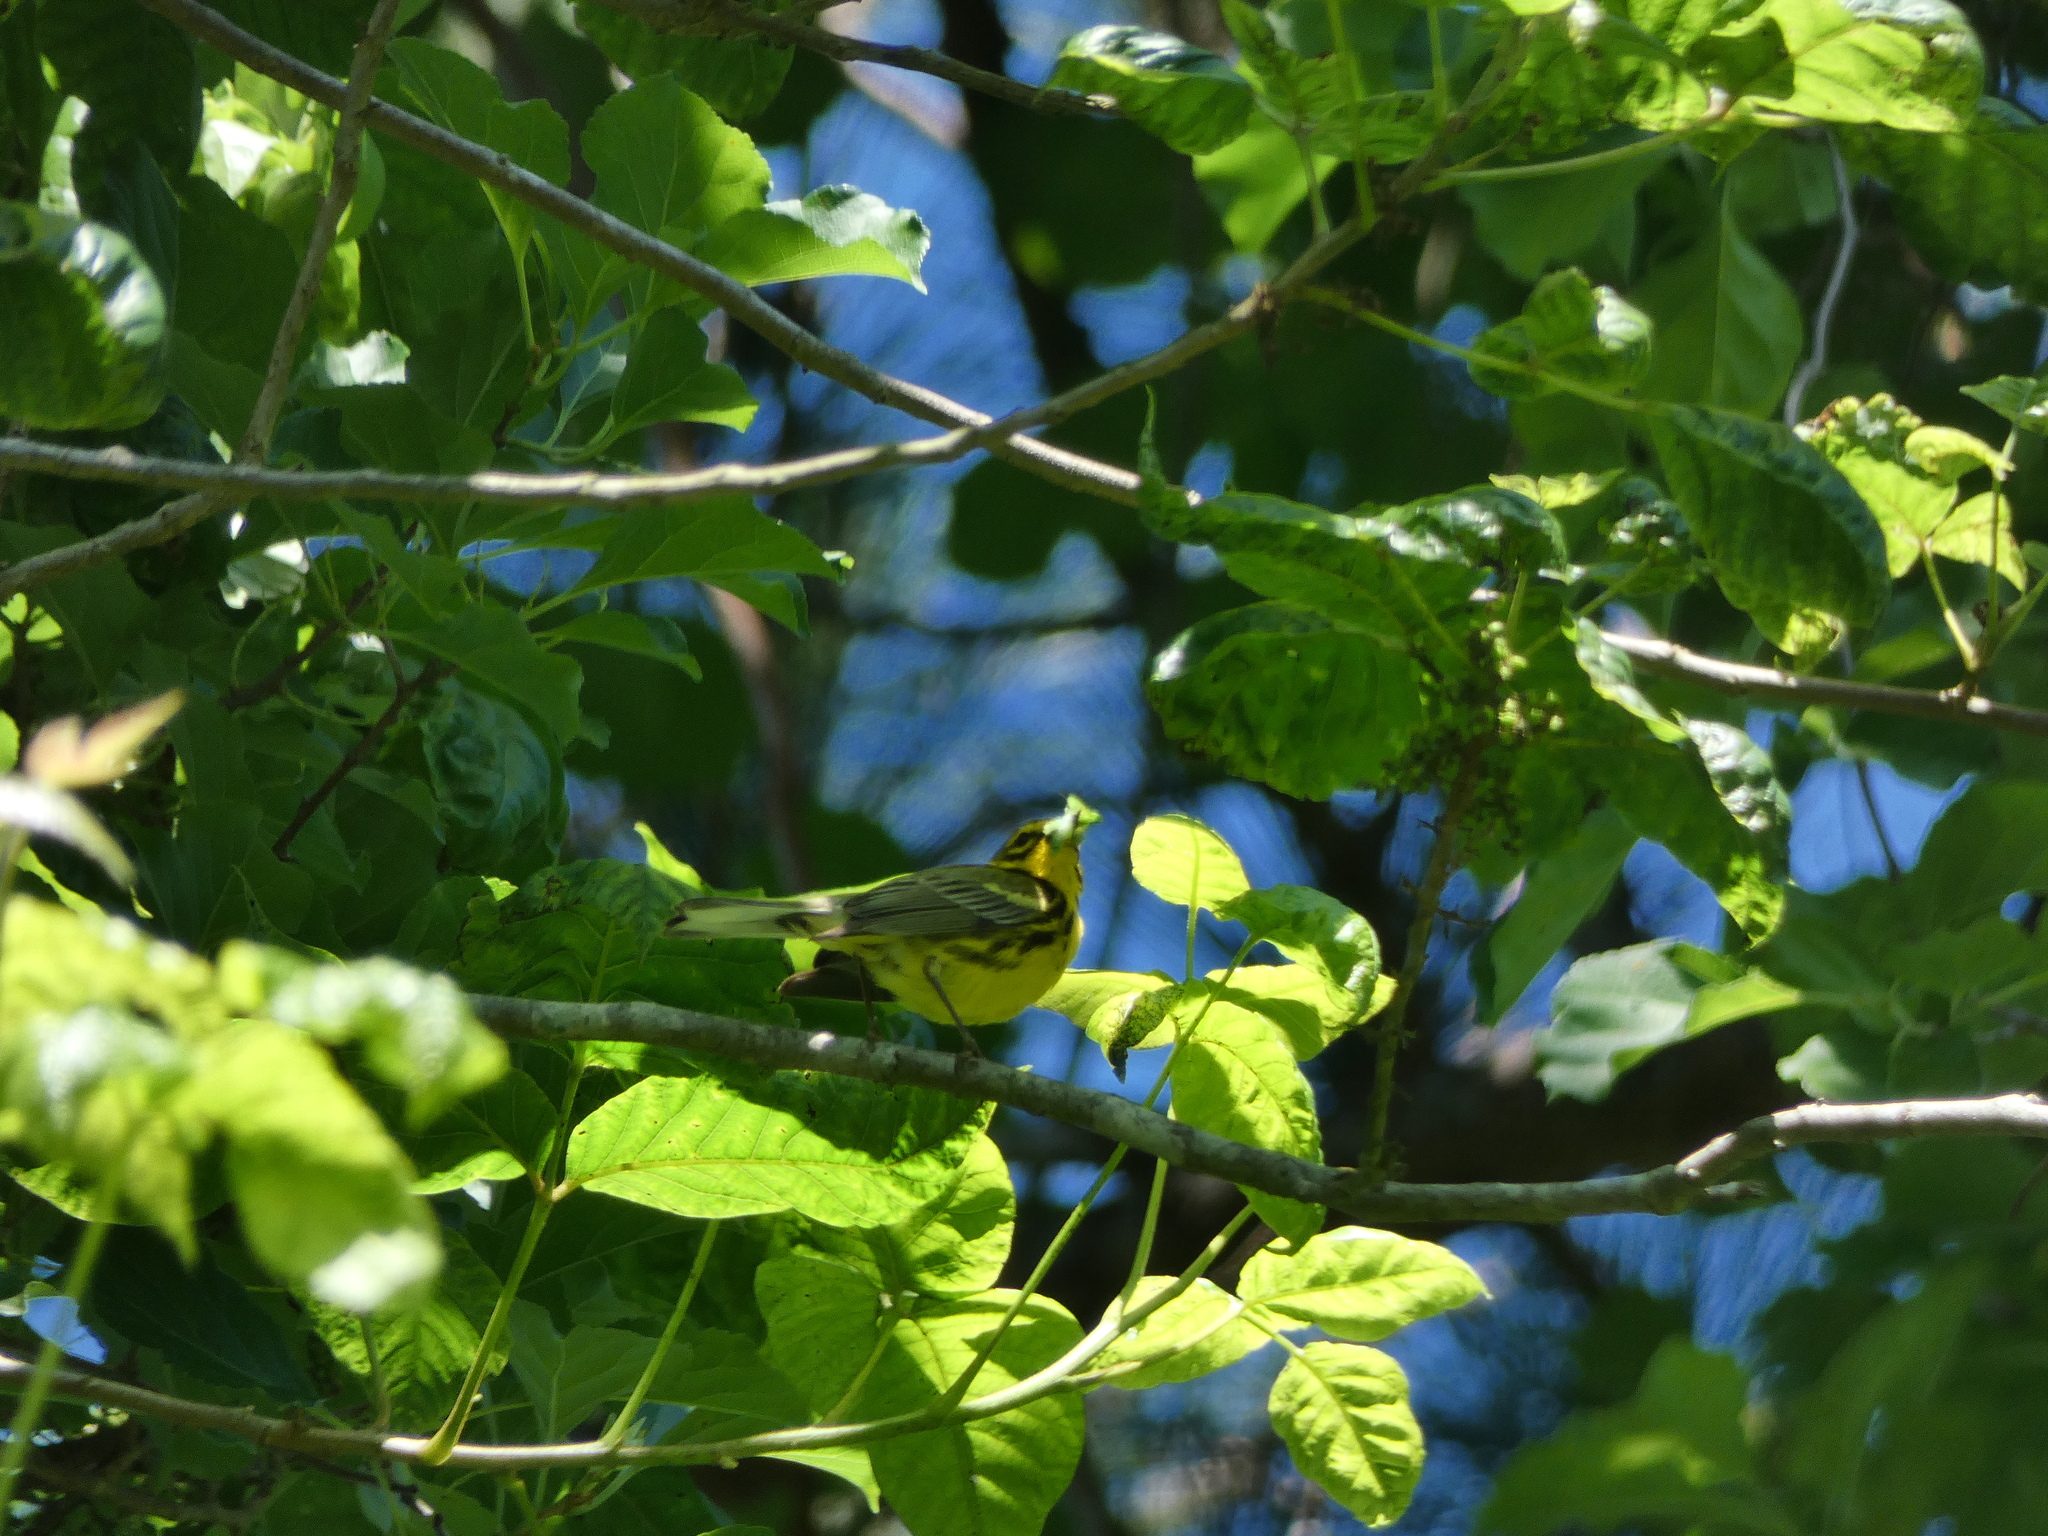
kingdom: Animalia
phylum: Chordata
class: Aves
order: Passeriformes
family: Parulidae
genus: Setophaga
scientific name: Setophaga discolor
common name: Prairie warbler
